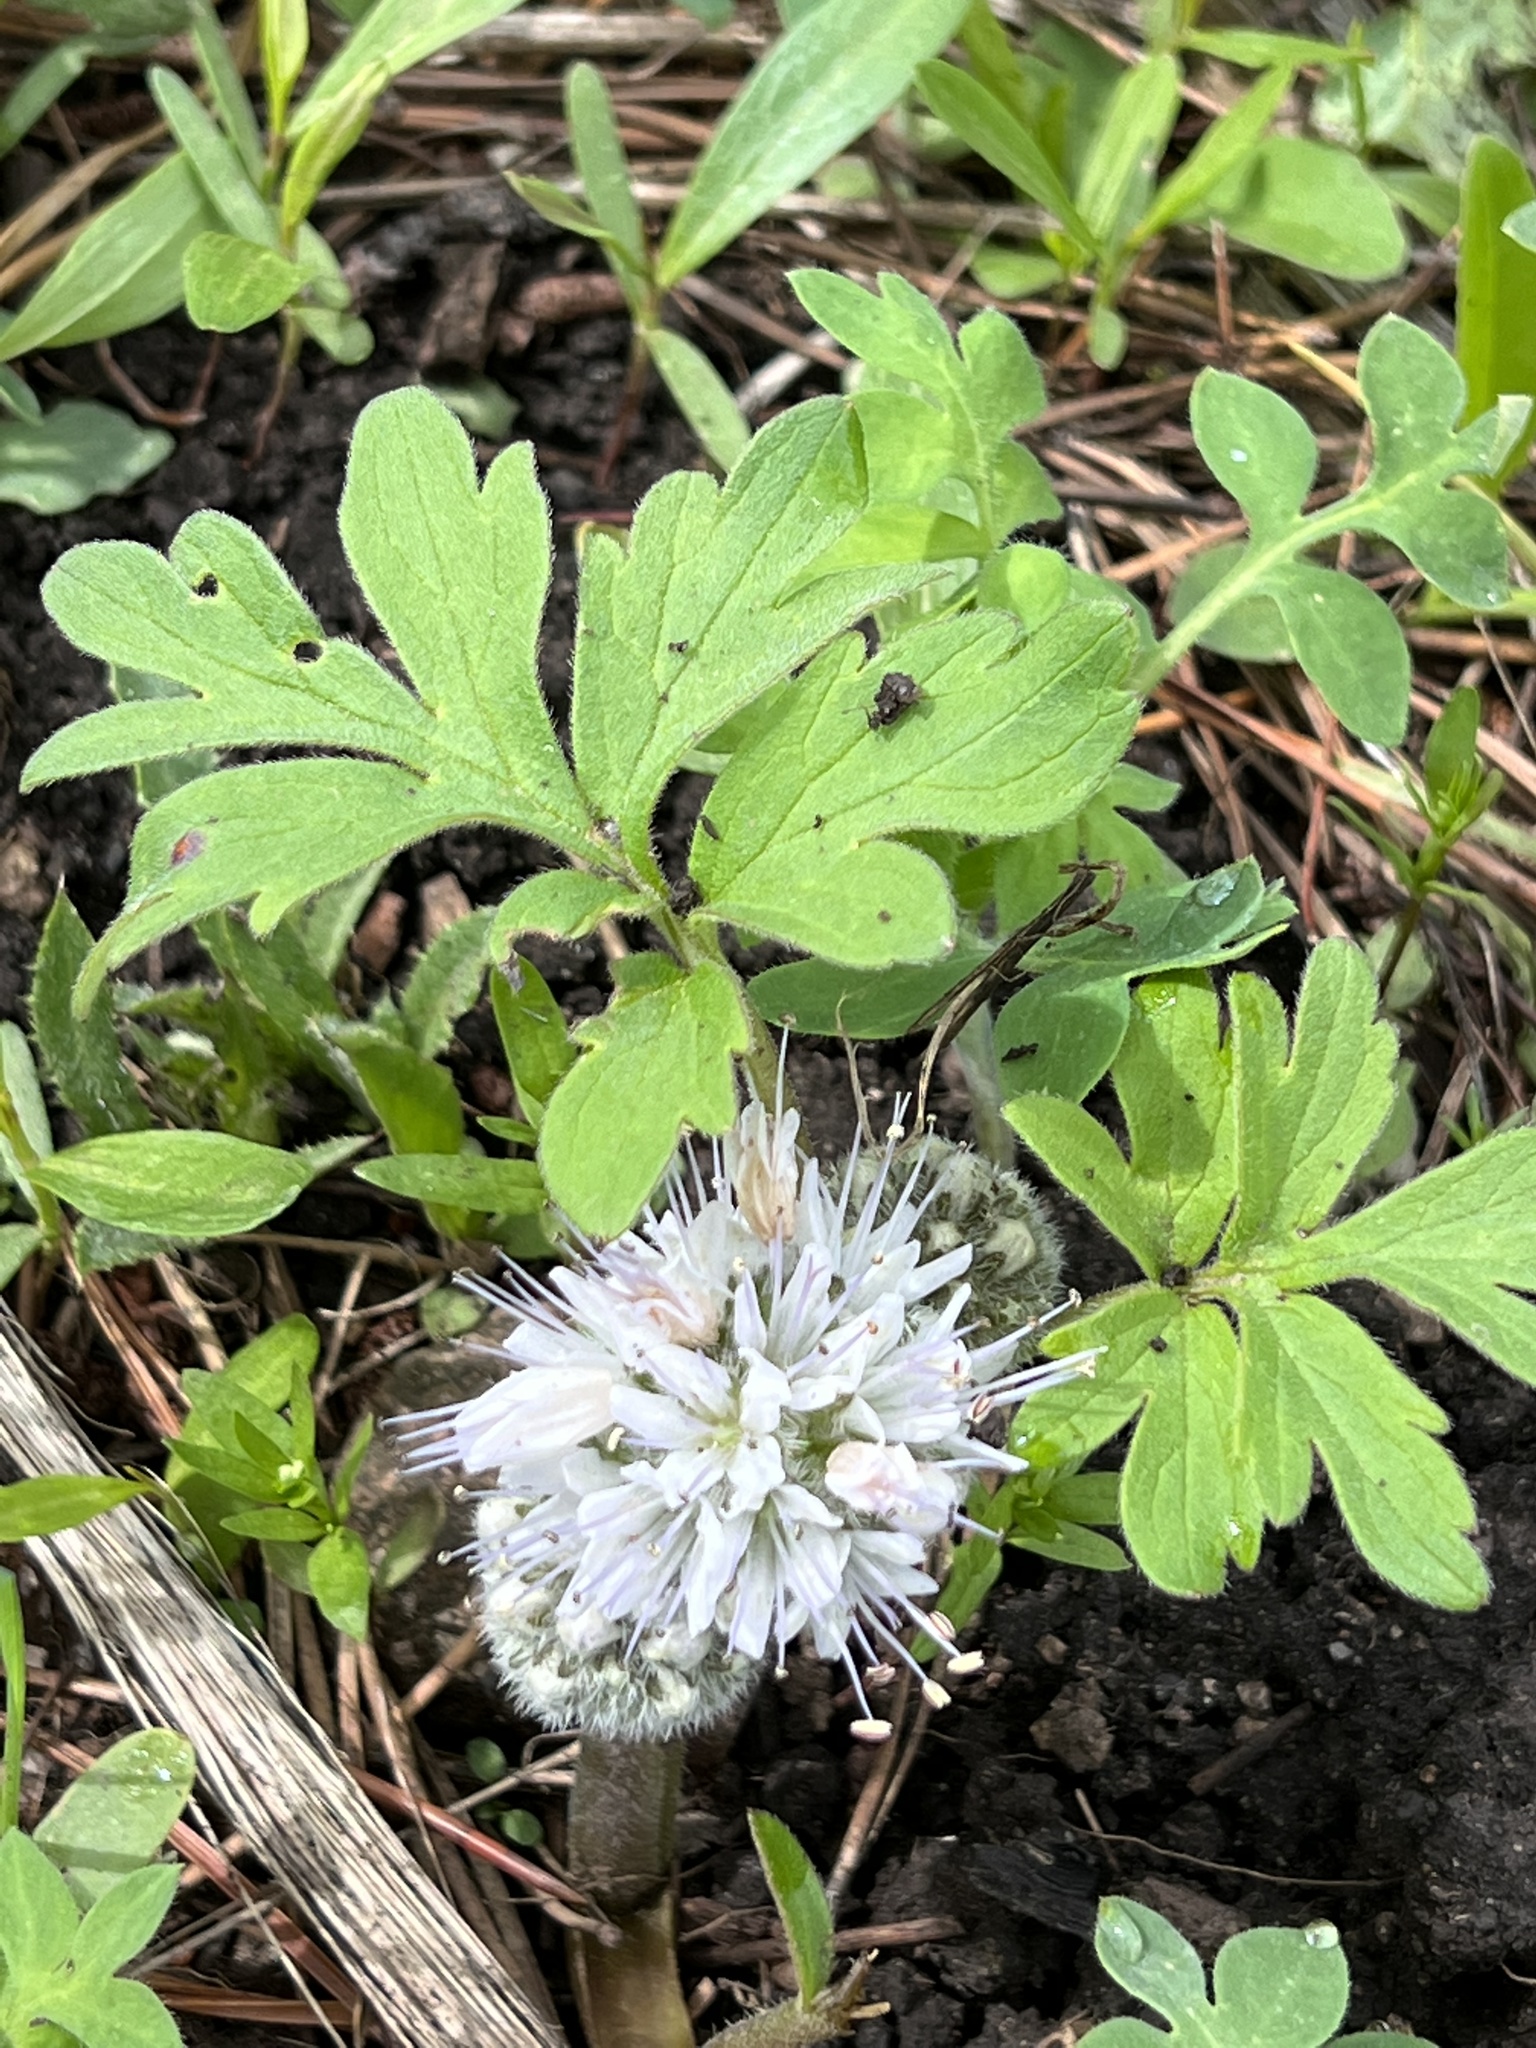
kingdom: Plantae
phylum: Tracheophyta
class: Magnoliopsida
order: Boraginales
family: Hydrophyllaceae
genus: Hydrophyllum
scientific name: Hydrophyllum capitatum
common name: Woollen-breeches
